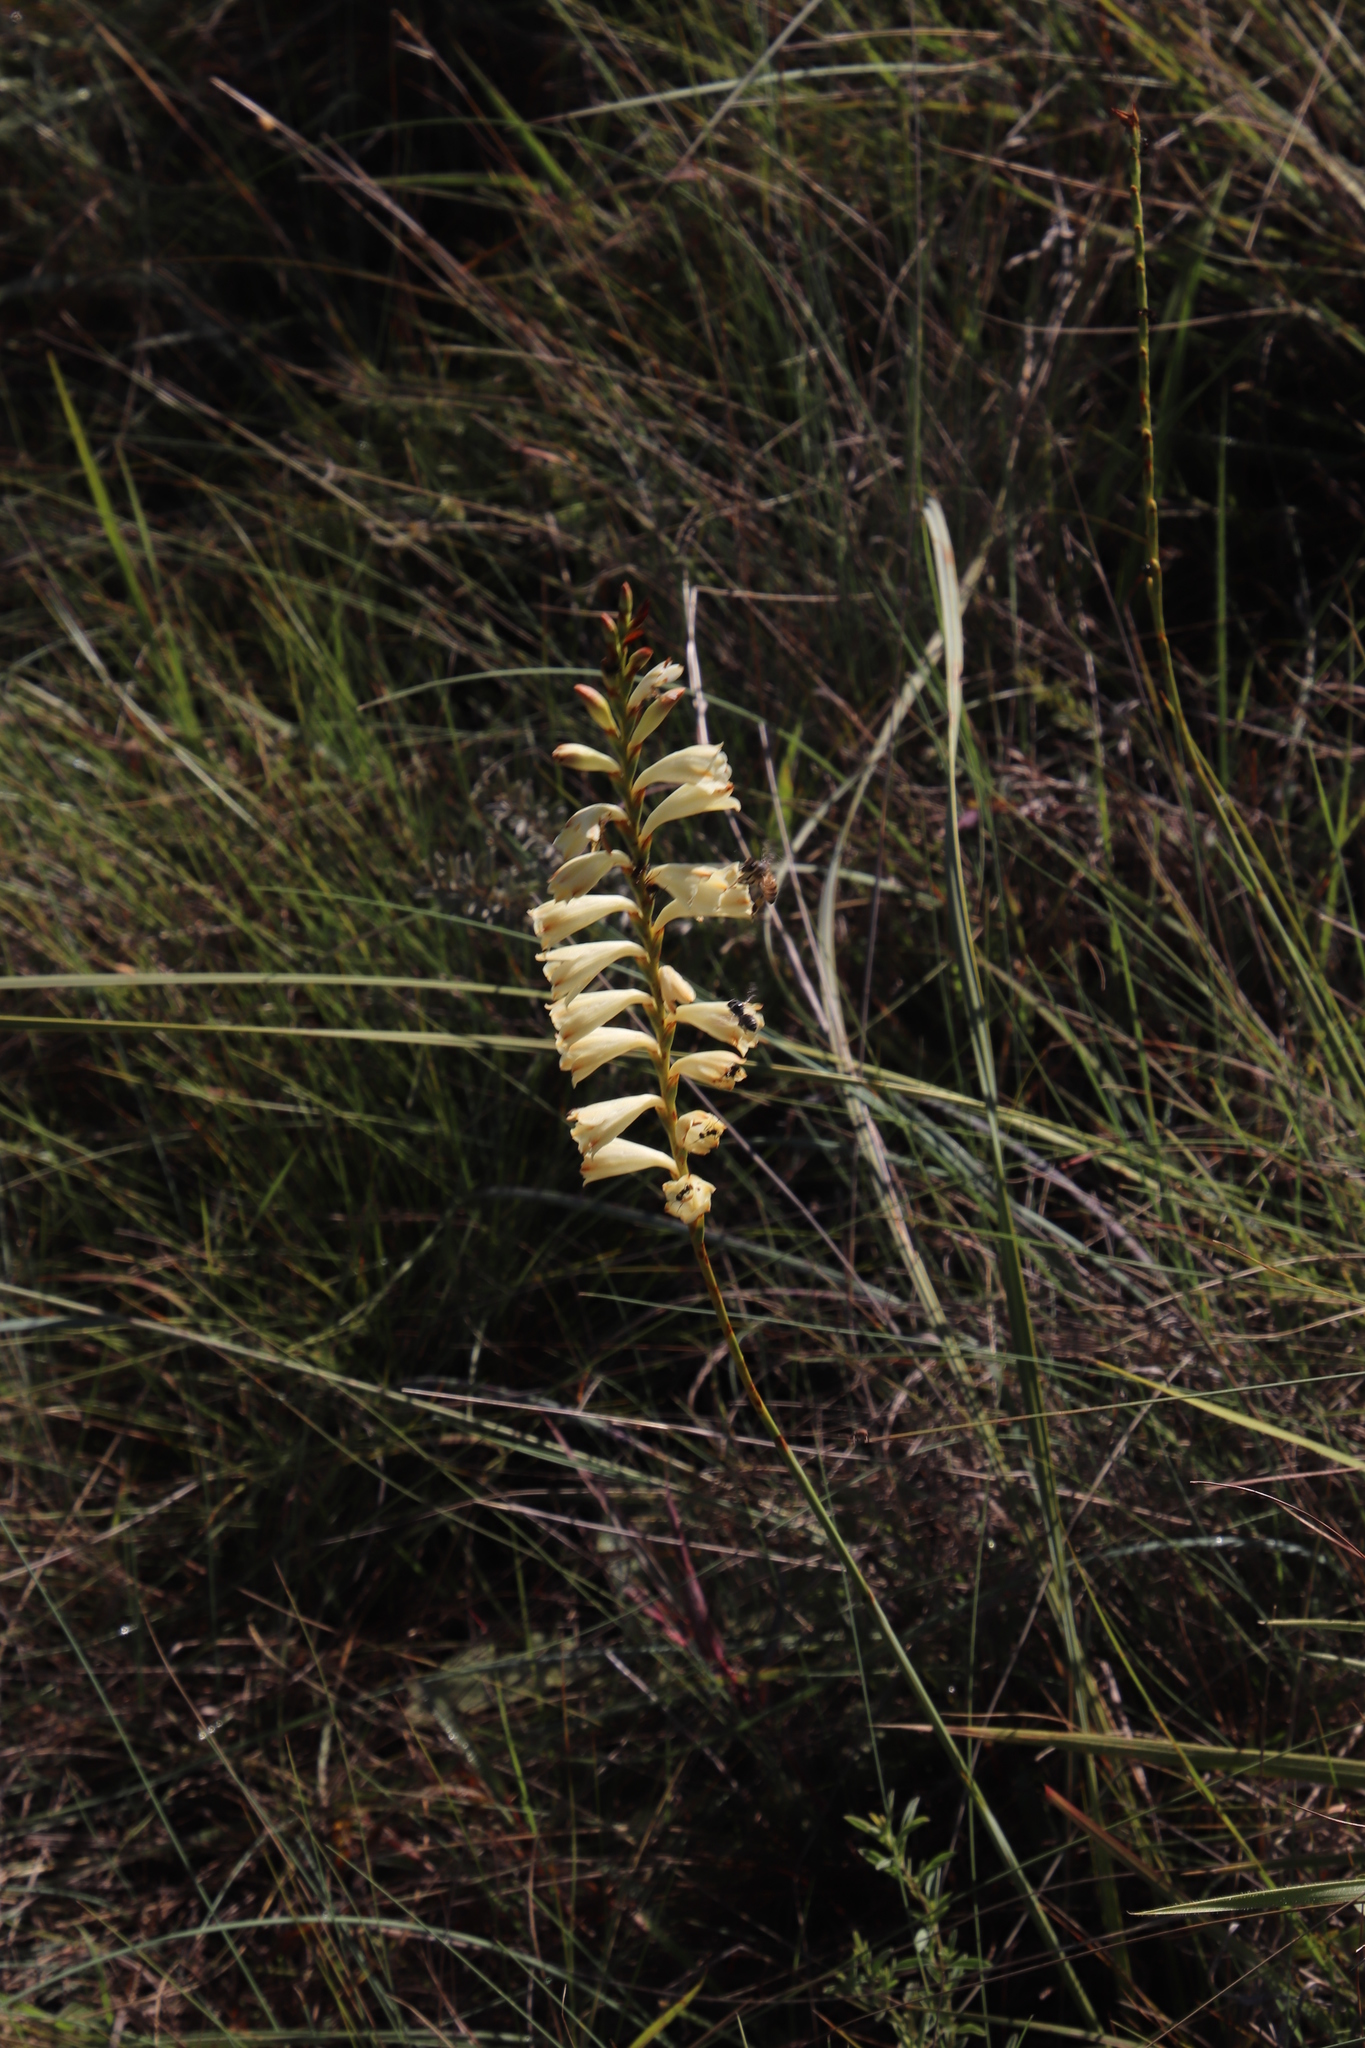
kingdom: Plantae
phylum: Tracheophyta
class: Liliopsida
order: Asparagales
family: Iridaceae
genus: Watsonia
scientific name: Watsonia watsonioides
